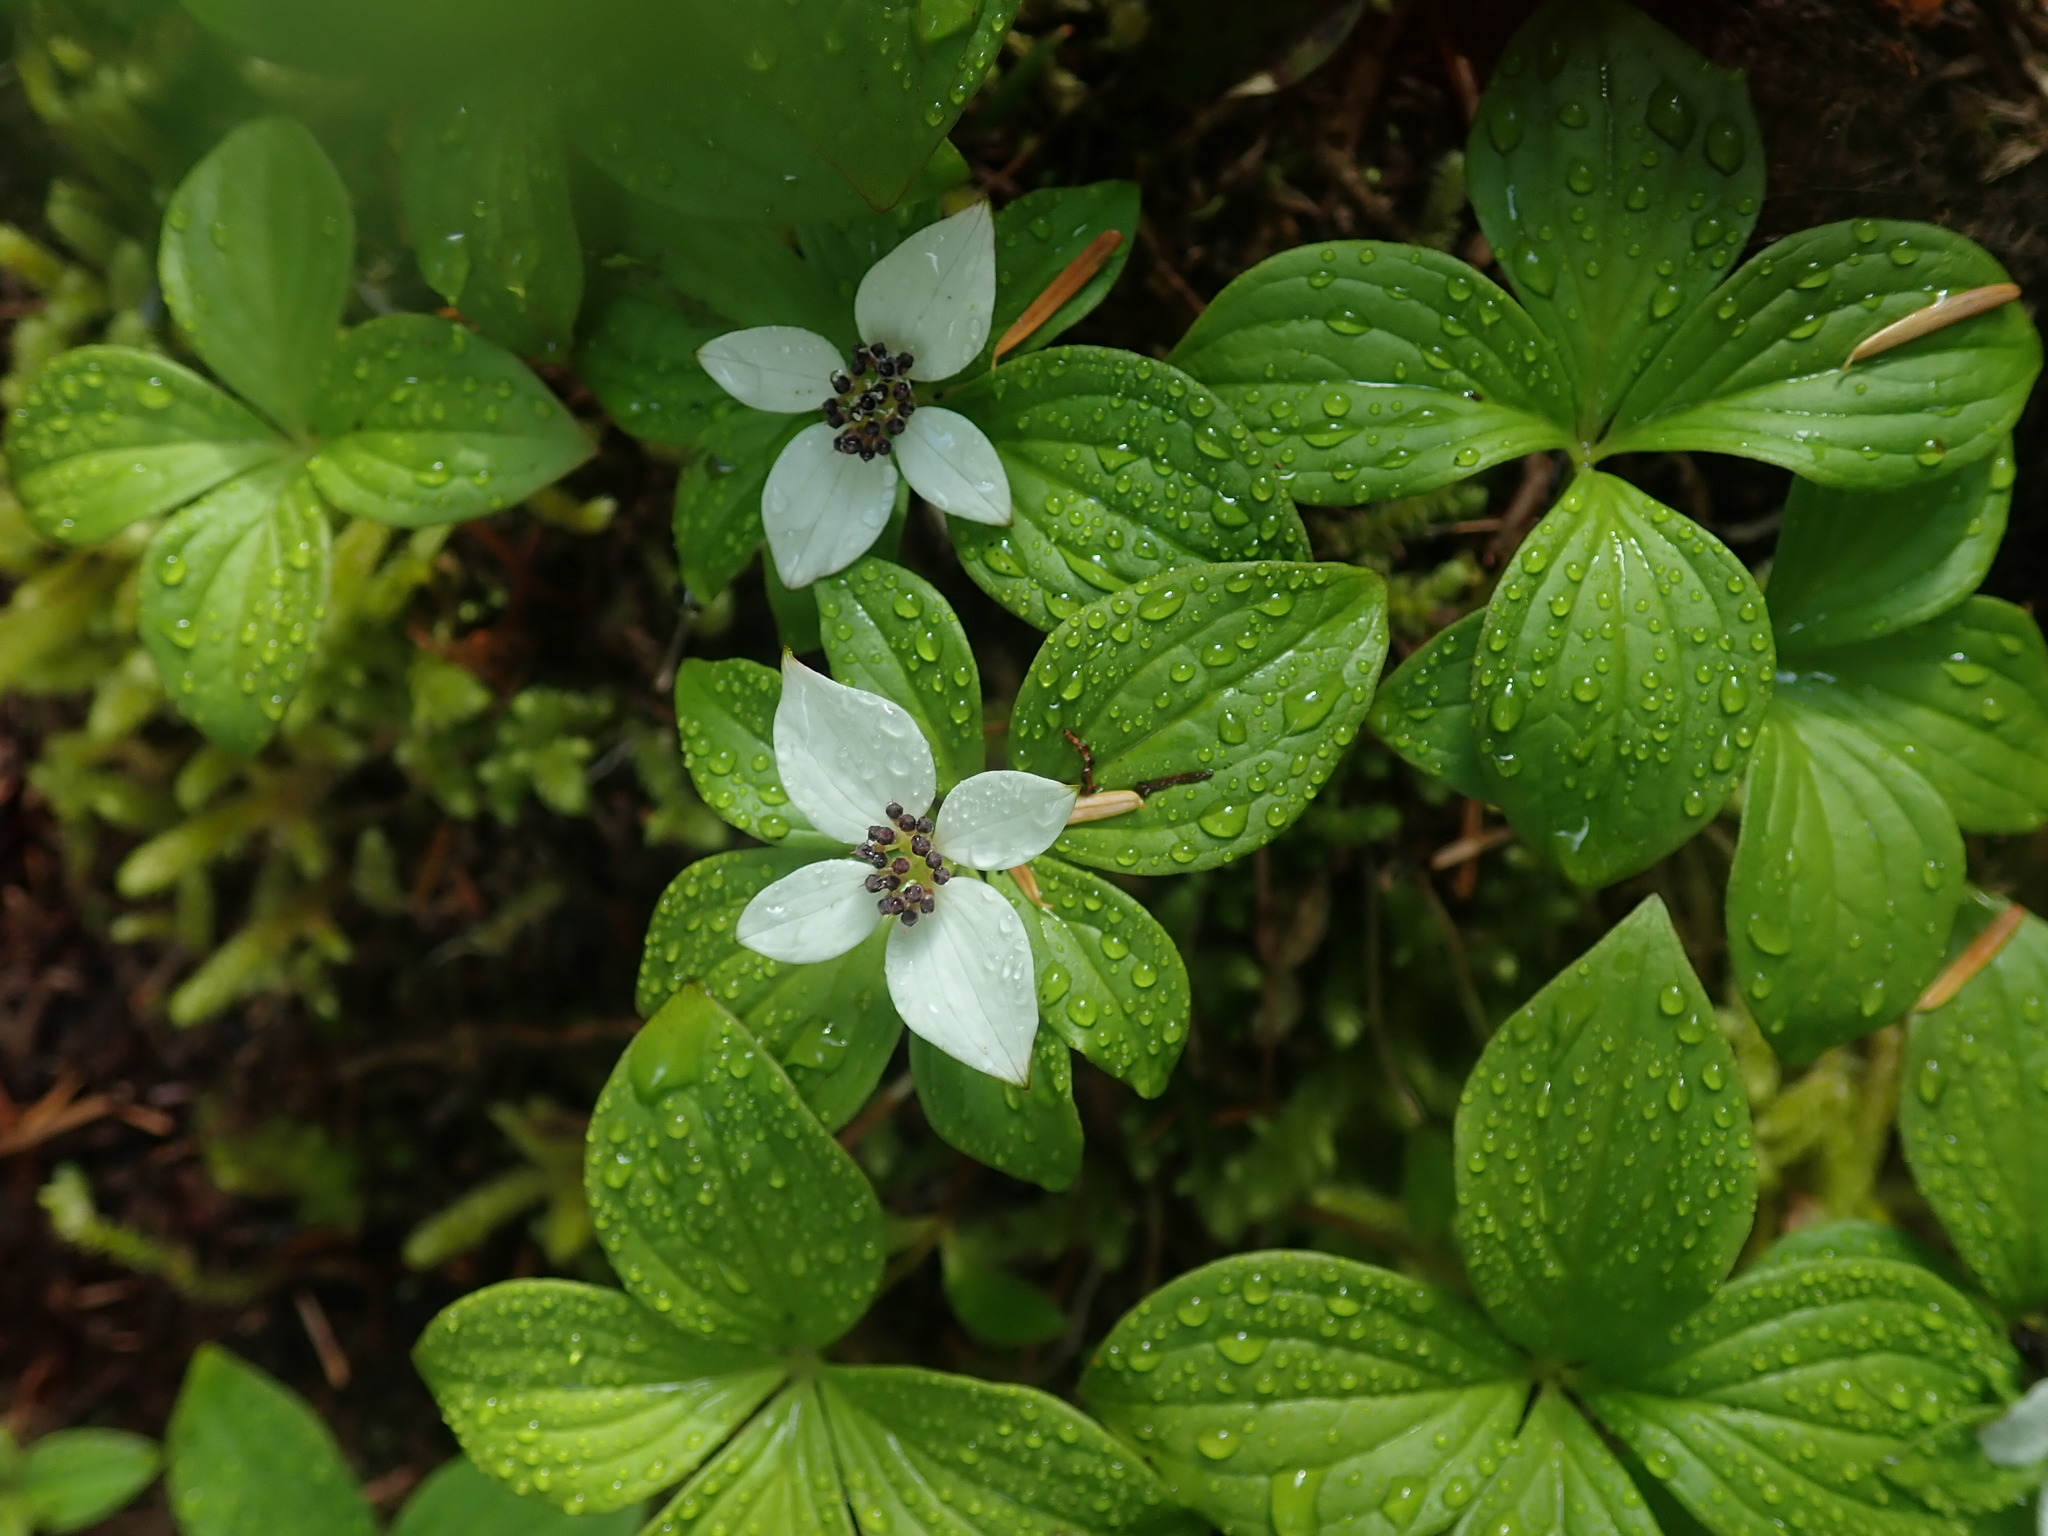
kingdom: Plantae
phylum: Tracheophyta
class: Magnoliopsida
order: Cornales
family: Cornaceae
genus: Cornus
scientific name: Cornus unalaschkensis
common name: Alaska bunchberry
